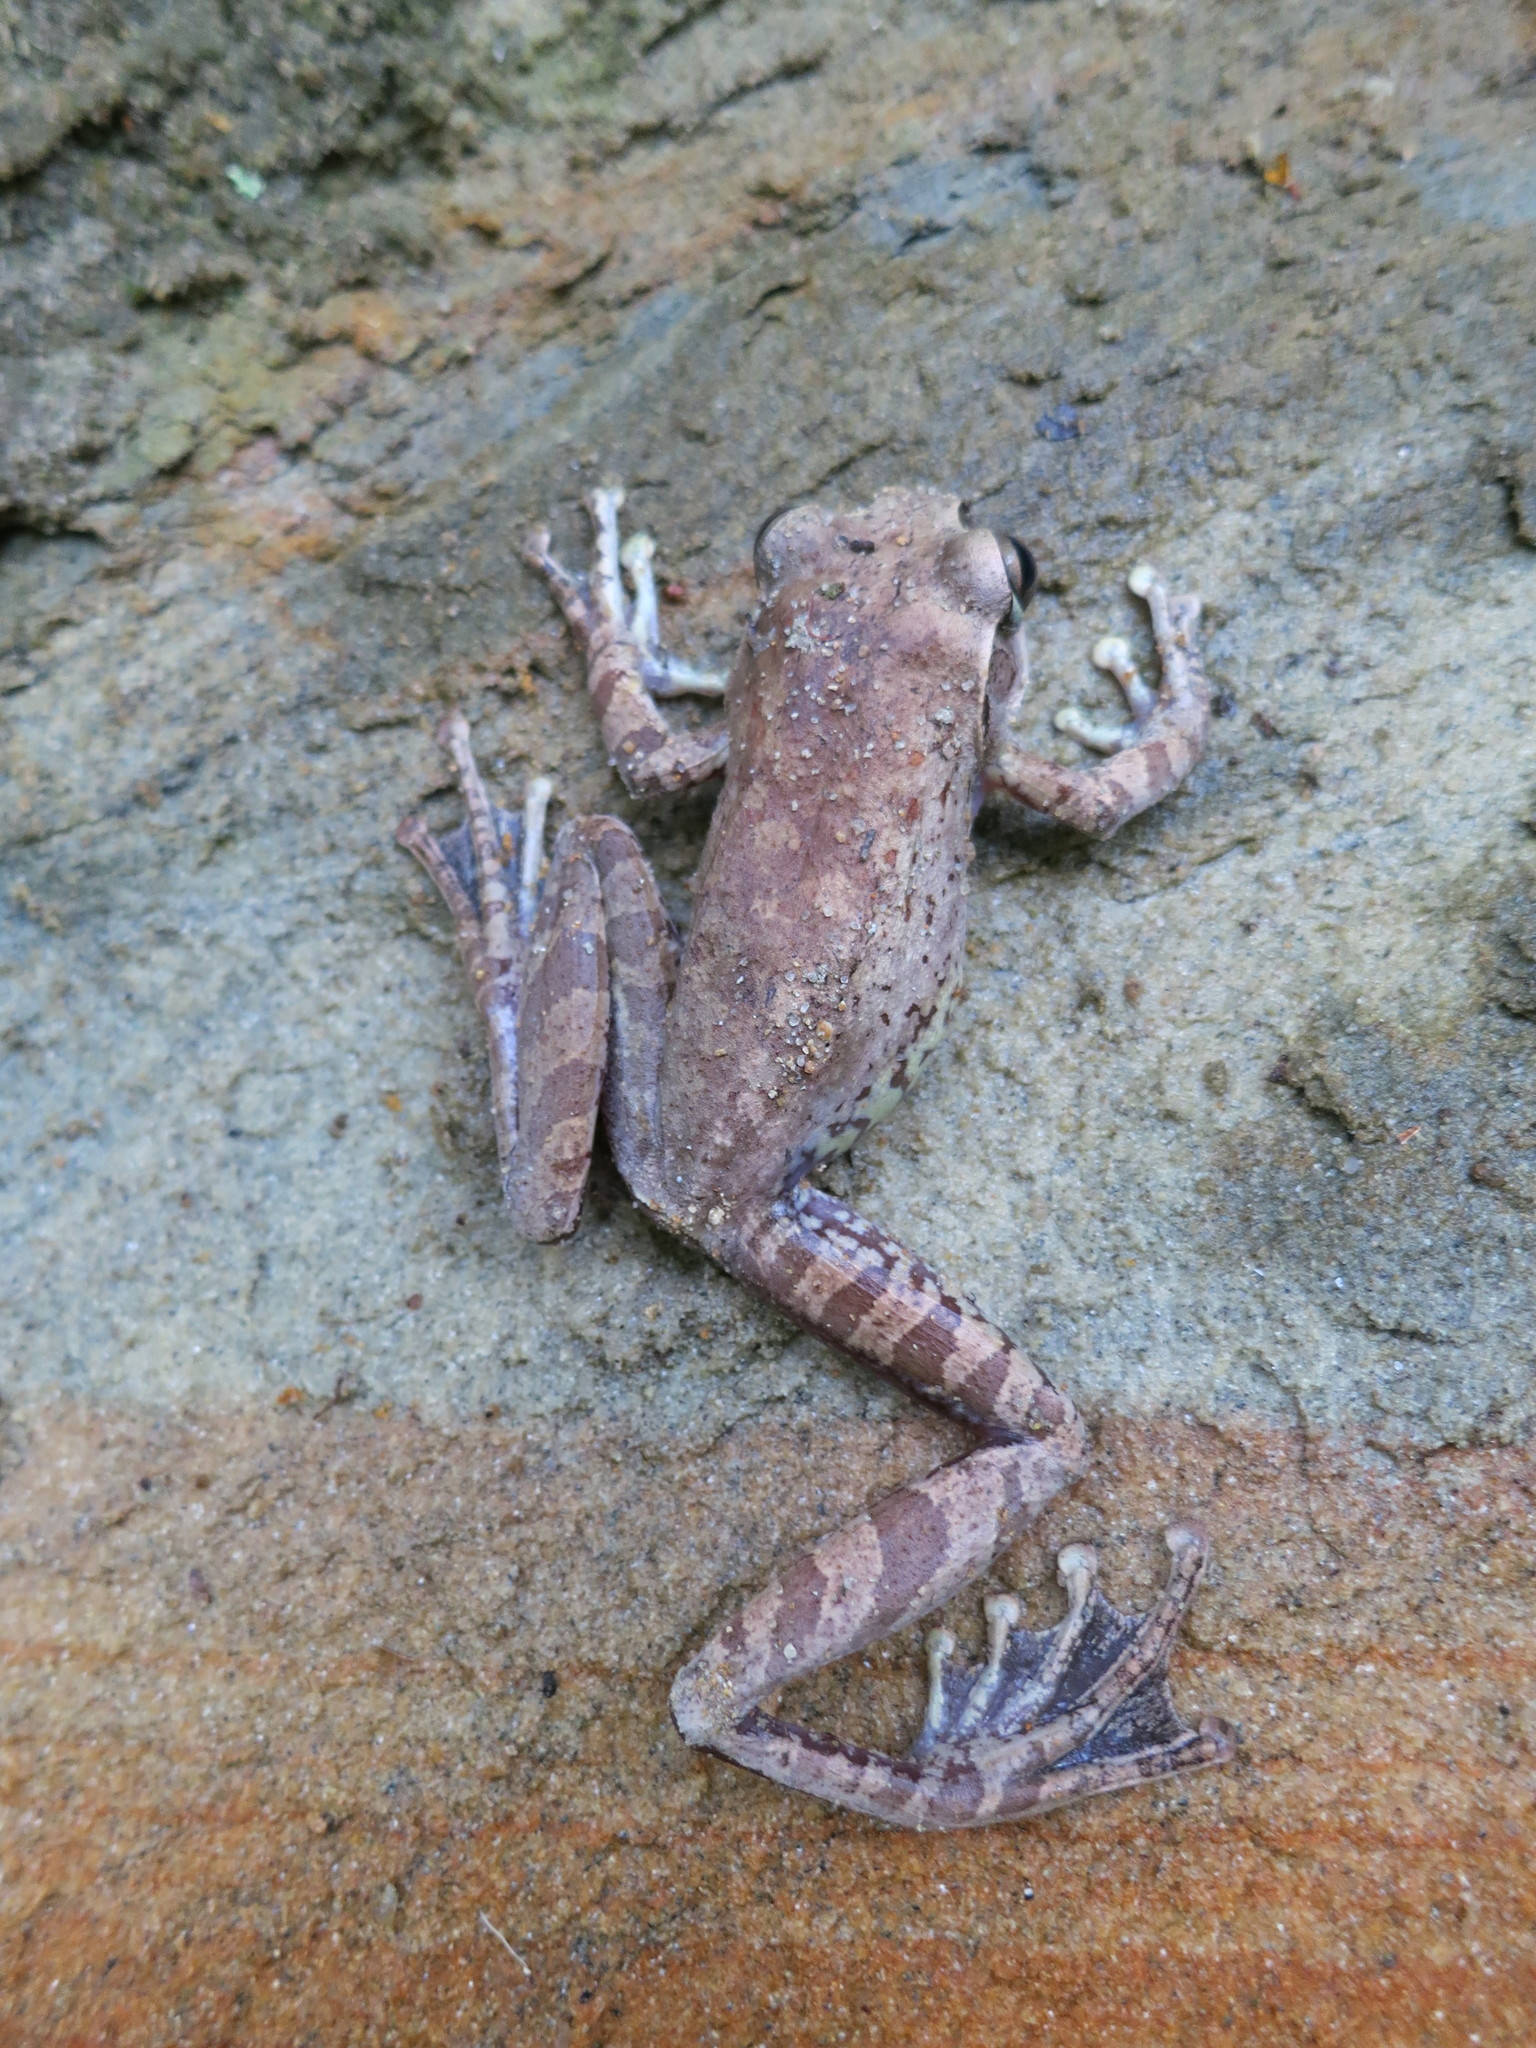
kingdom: Animalia
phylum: Chordata
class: Amphibia
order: Anura
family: Mantellidae
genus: Boophis
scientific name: Boophis doulioti
